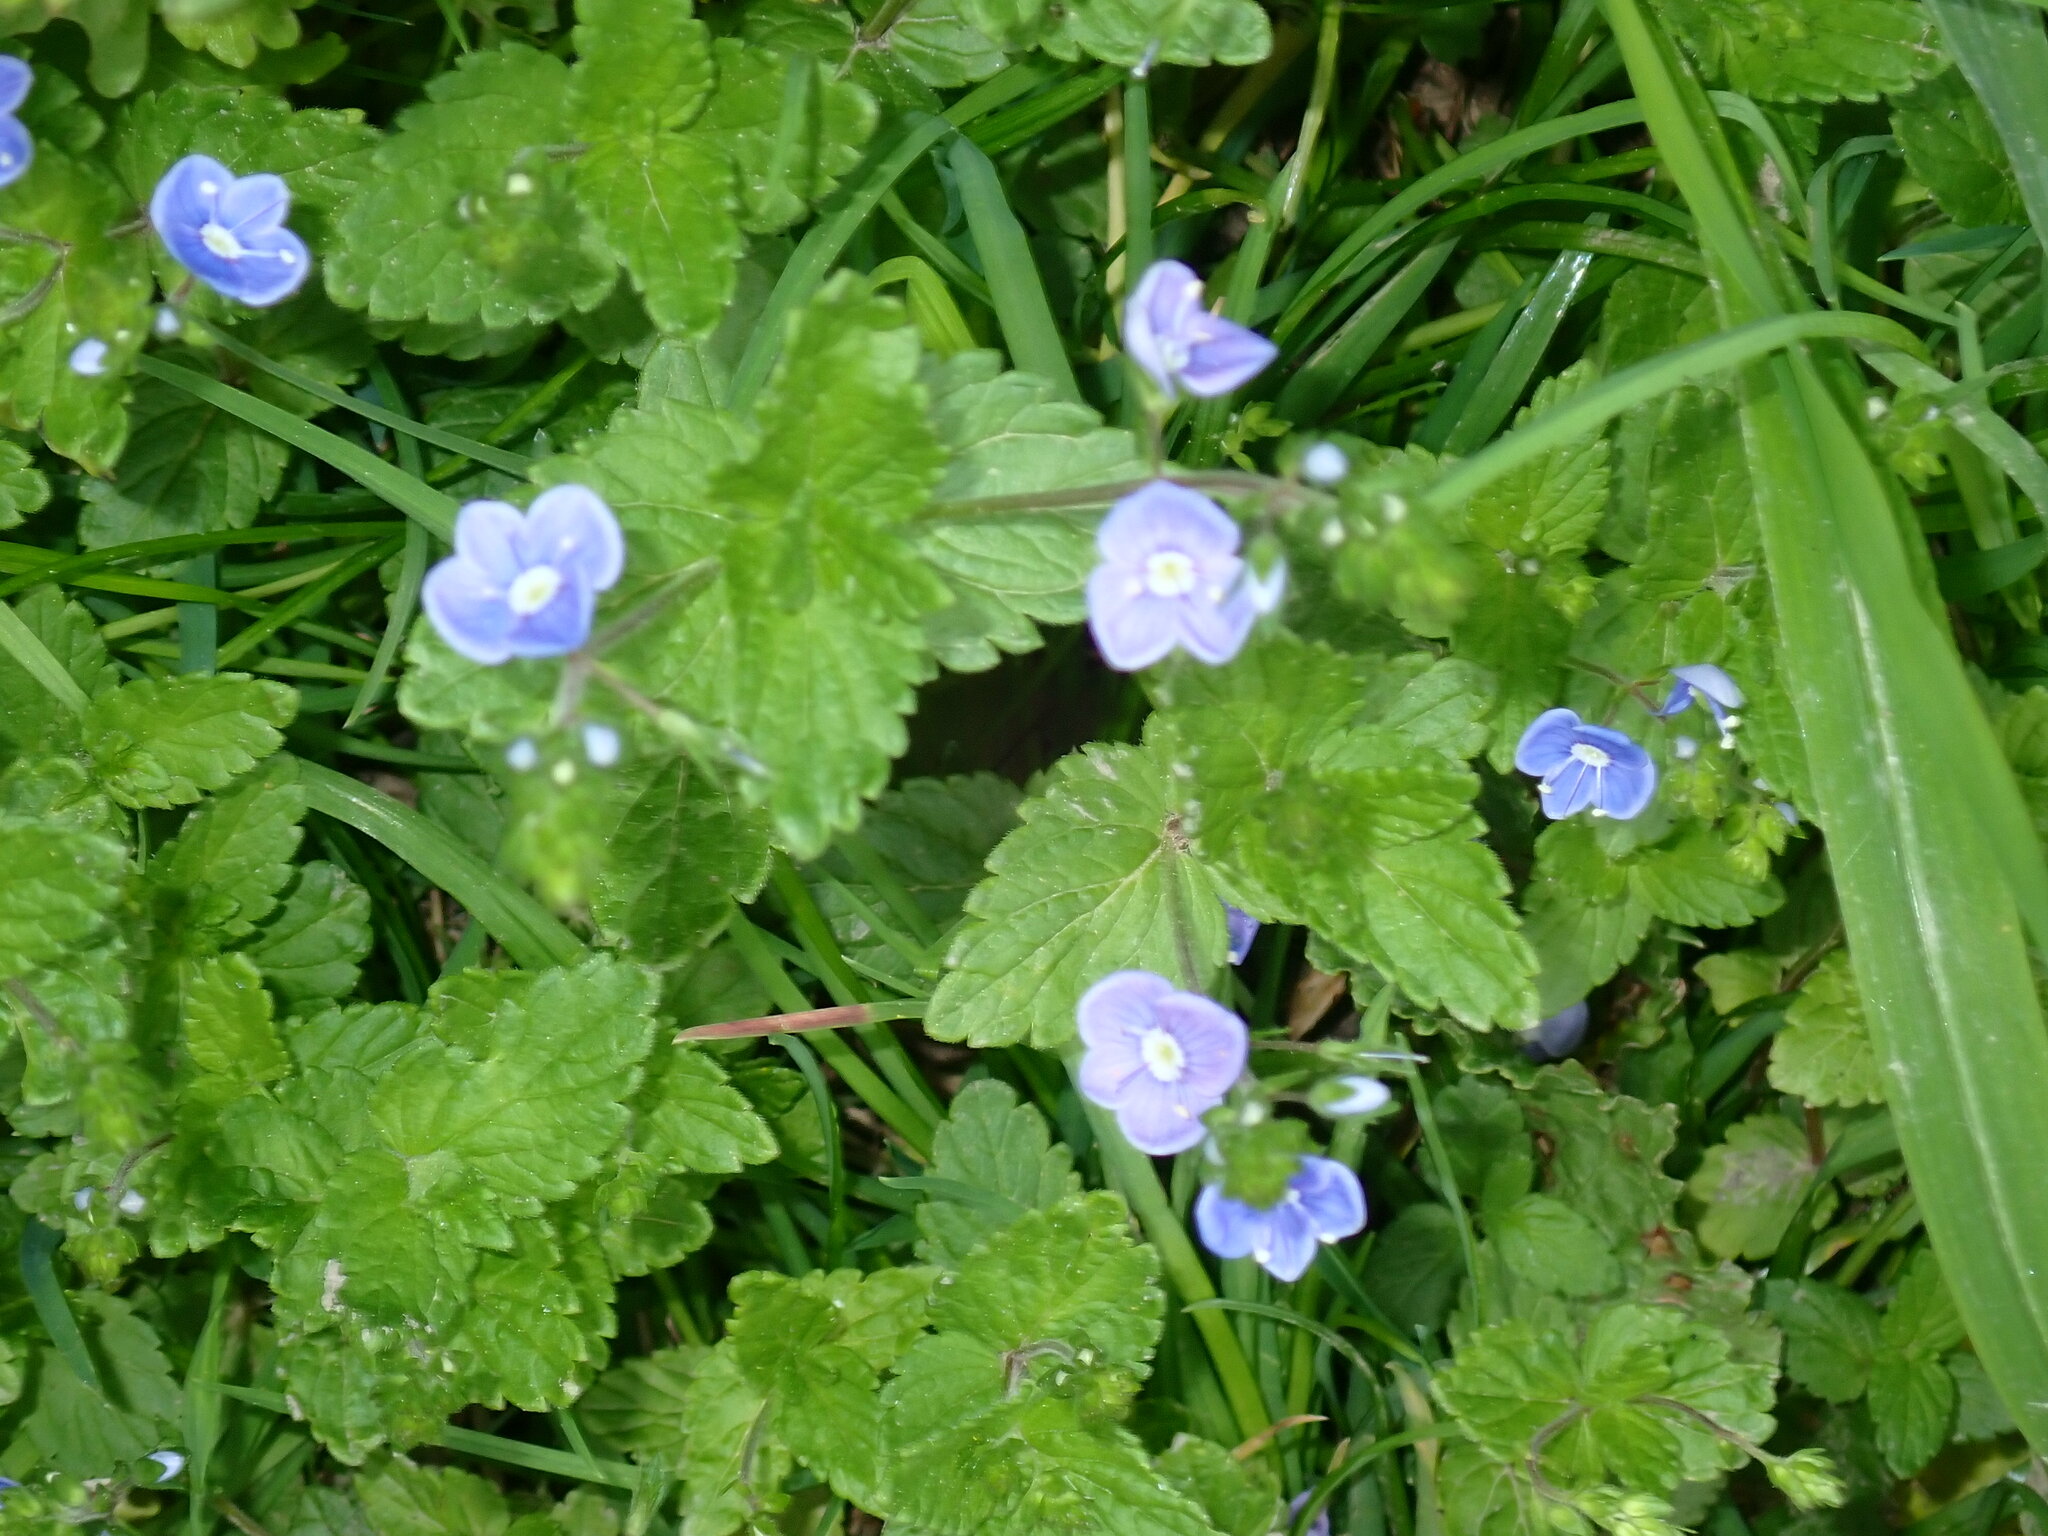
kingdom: Plantae
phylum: Tracheophyta
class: Magnoliopsida
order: Lamiales
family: Plantaginaceae
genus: Veronica
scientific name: Veronica chamaedrys
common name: Germander speedwell
